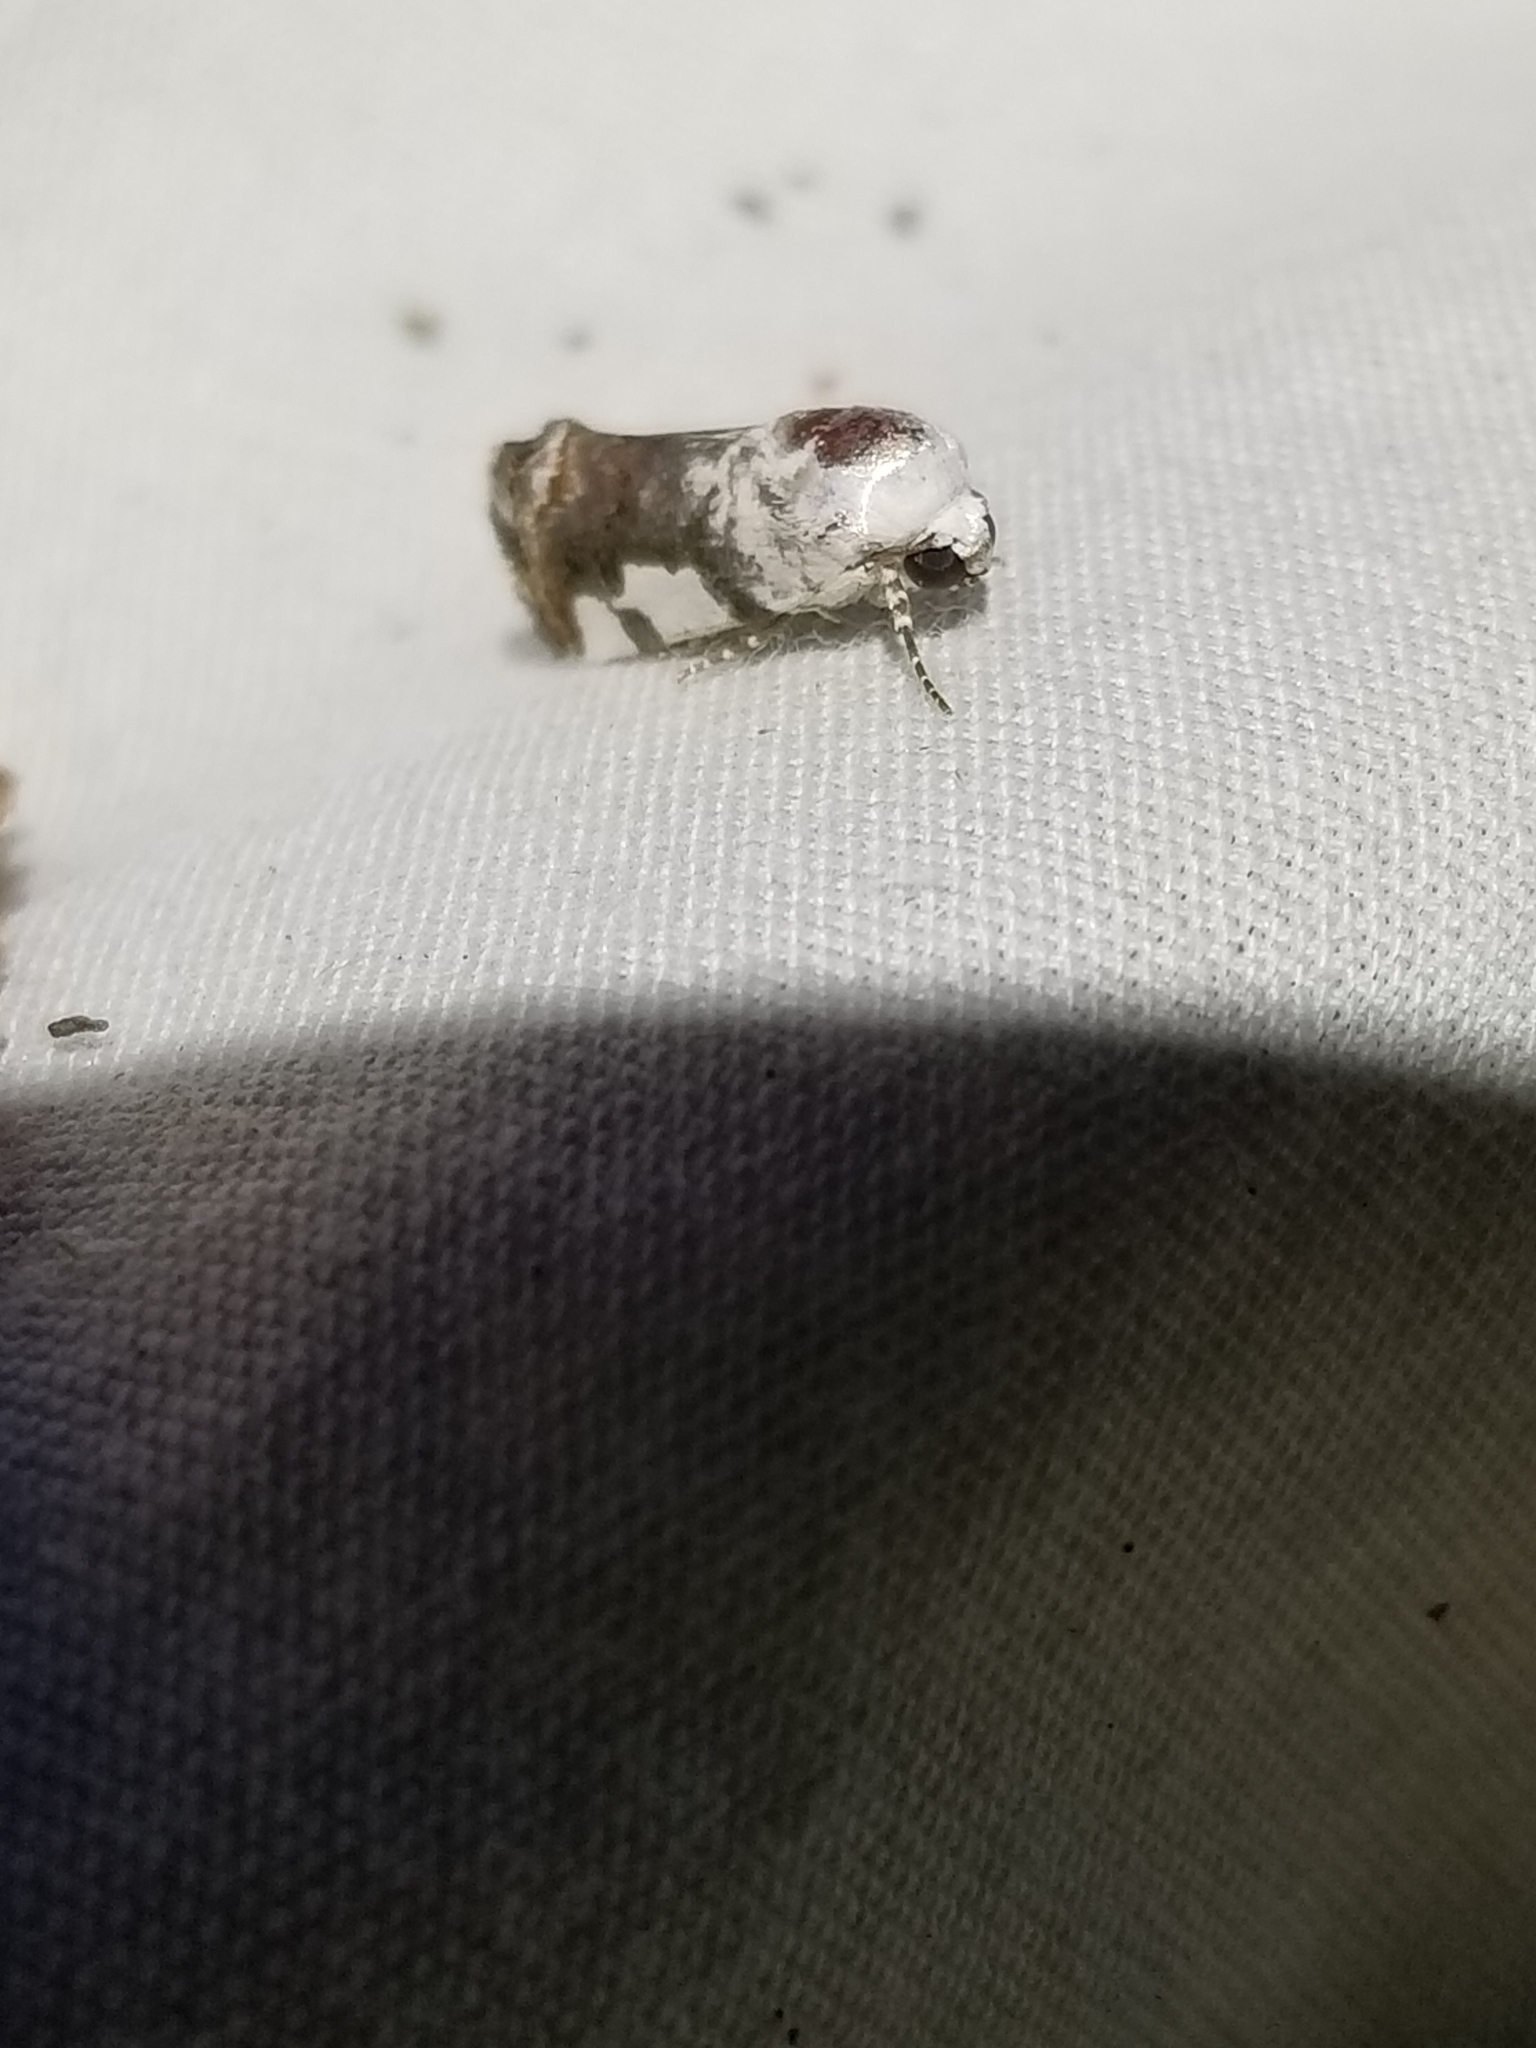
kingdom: Animalia
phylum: Arthropoda
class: Insecta
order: Lepidoptera
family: Noctuidae
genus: Acontia
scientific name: Acontia quadriplaga
